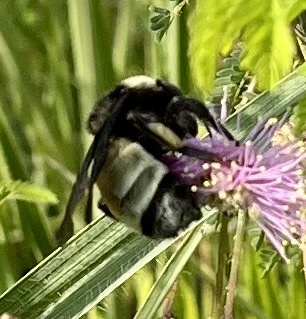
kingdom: Animalia
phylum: Arthropoda
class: Insecta
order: Hymenoptera
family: Apidae
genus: Bombus
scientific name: Bombus pensylvanicus
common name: Bumble bee
